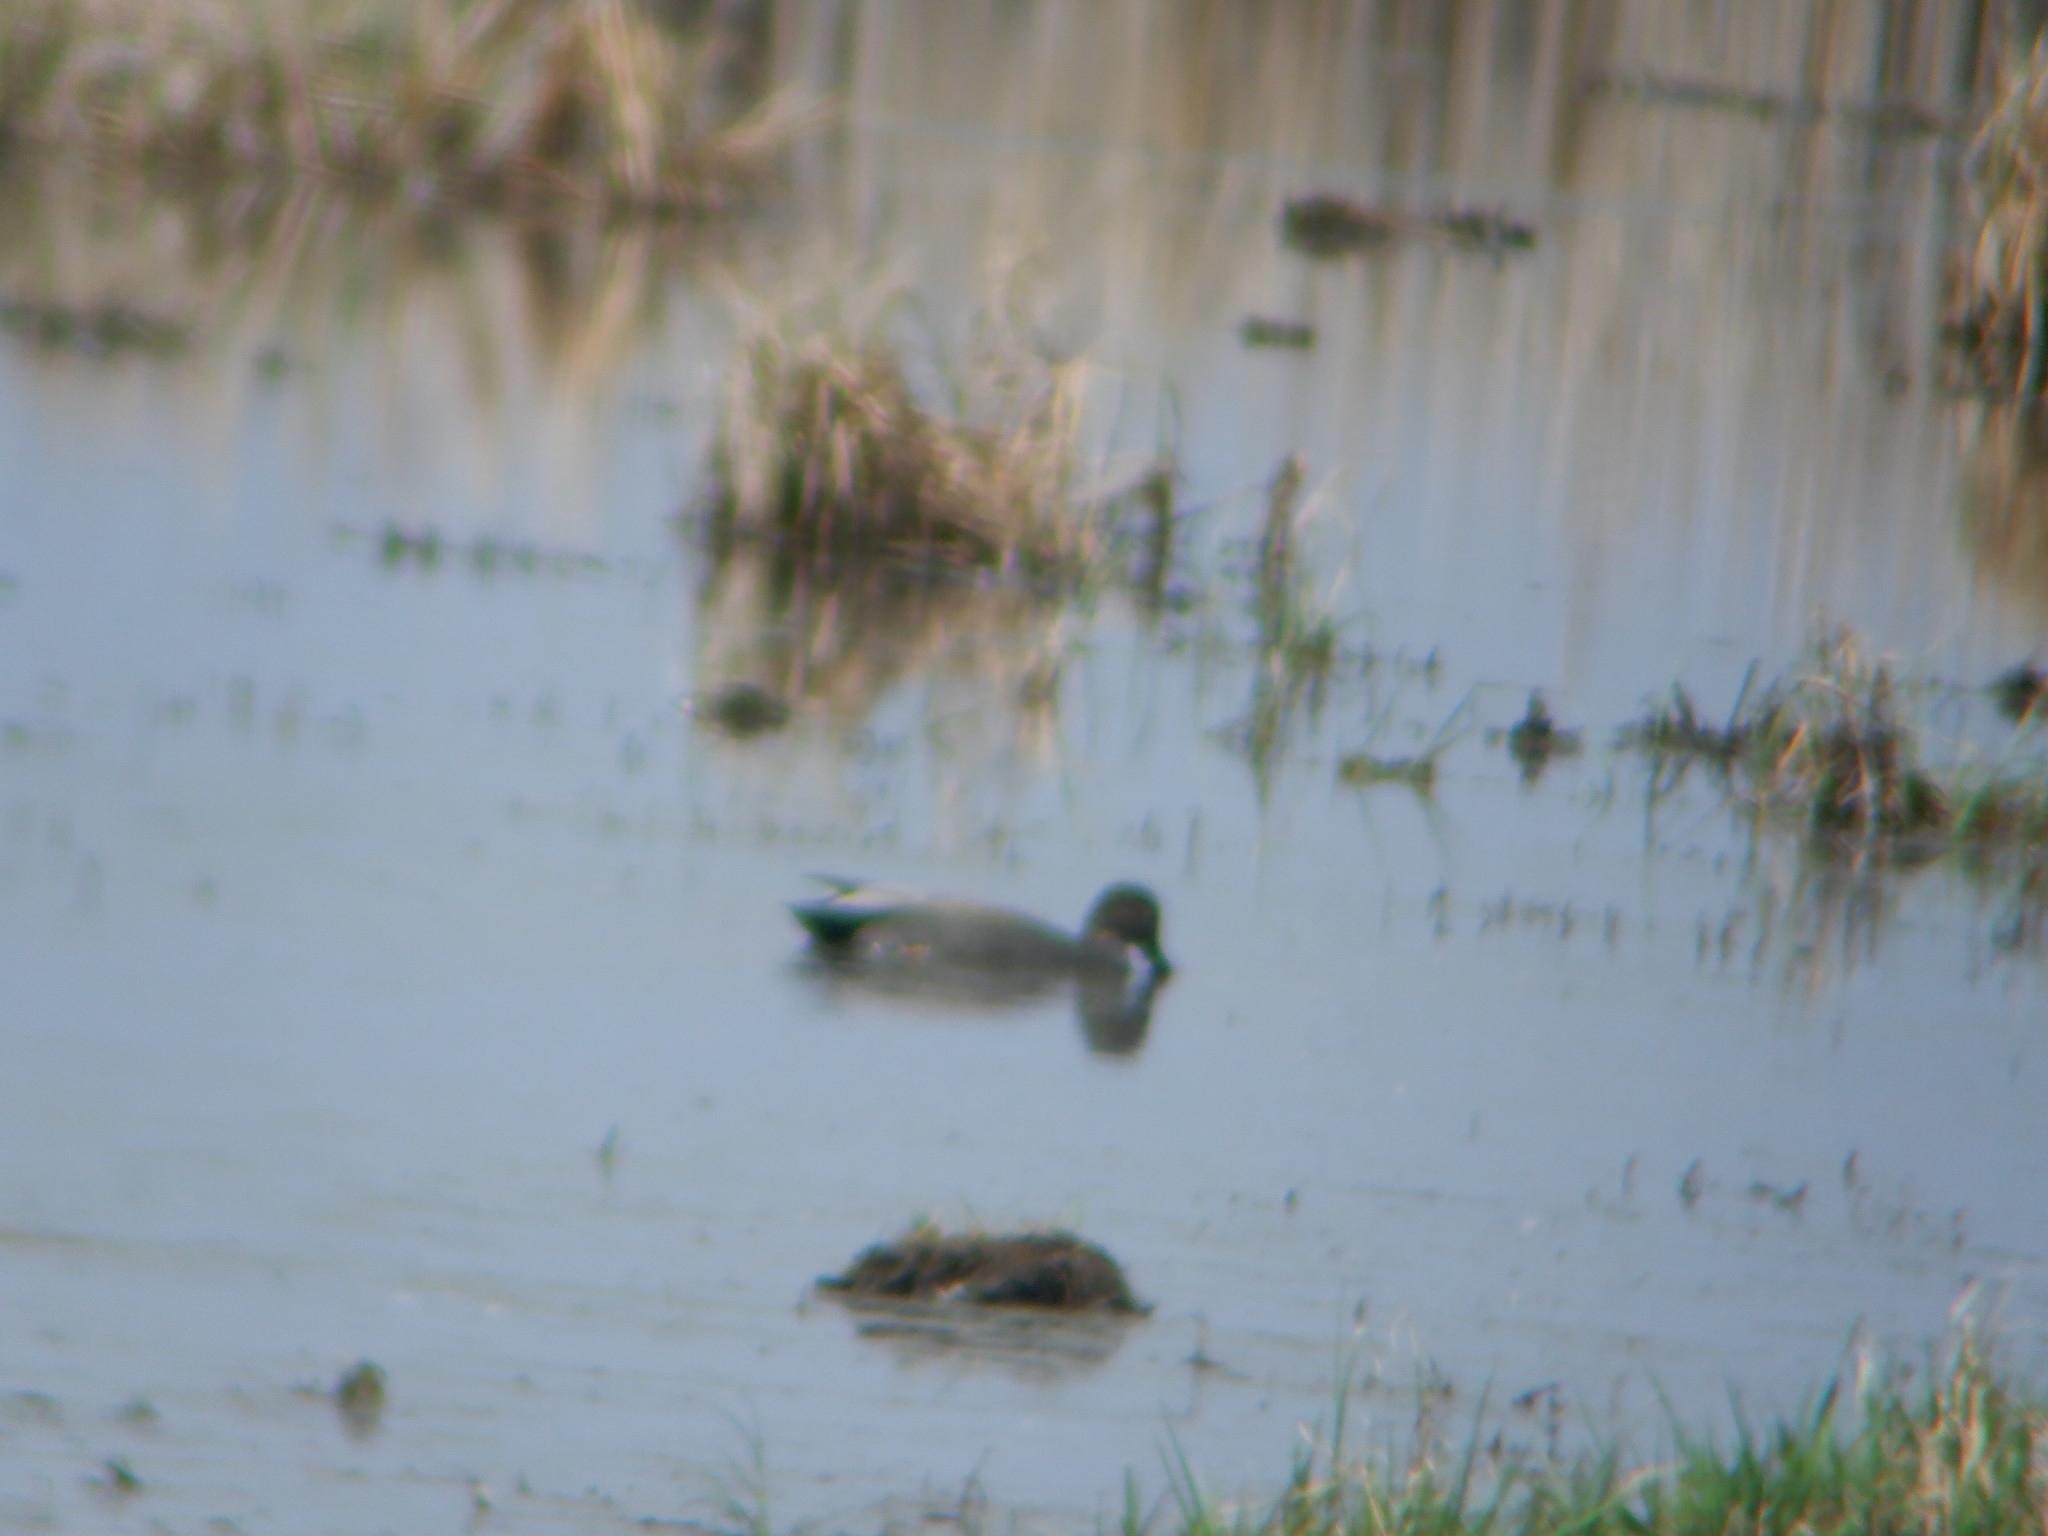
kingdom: Animalia
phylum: Chordata
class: Aves
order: Anseriformes
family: Anatidae
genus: Mareca
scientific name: Mareca strepera
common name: Gadwall
